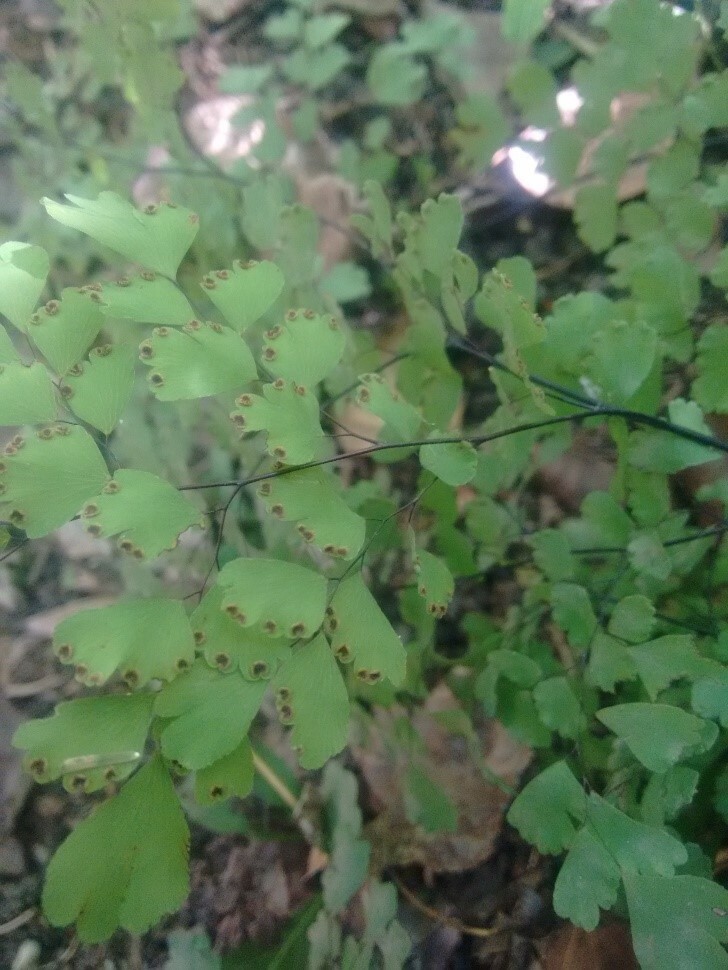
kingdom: Plantae
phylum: Tracheophyta
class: Polypodiopsida
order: Polypodiales
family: Pteridaceae
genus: Adiantum
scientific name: Adiantum raddianum
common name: Delta maidenhair fern
